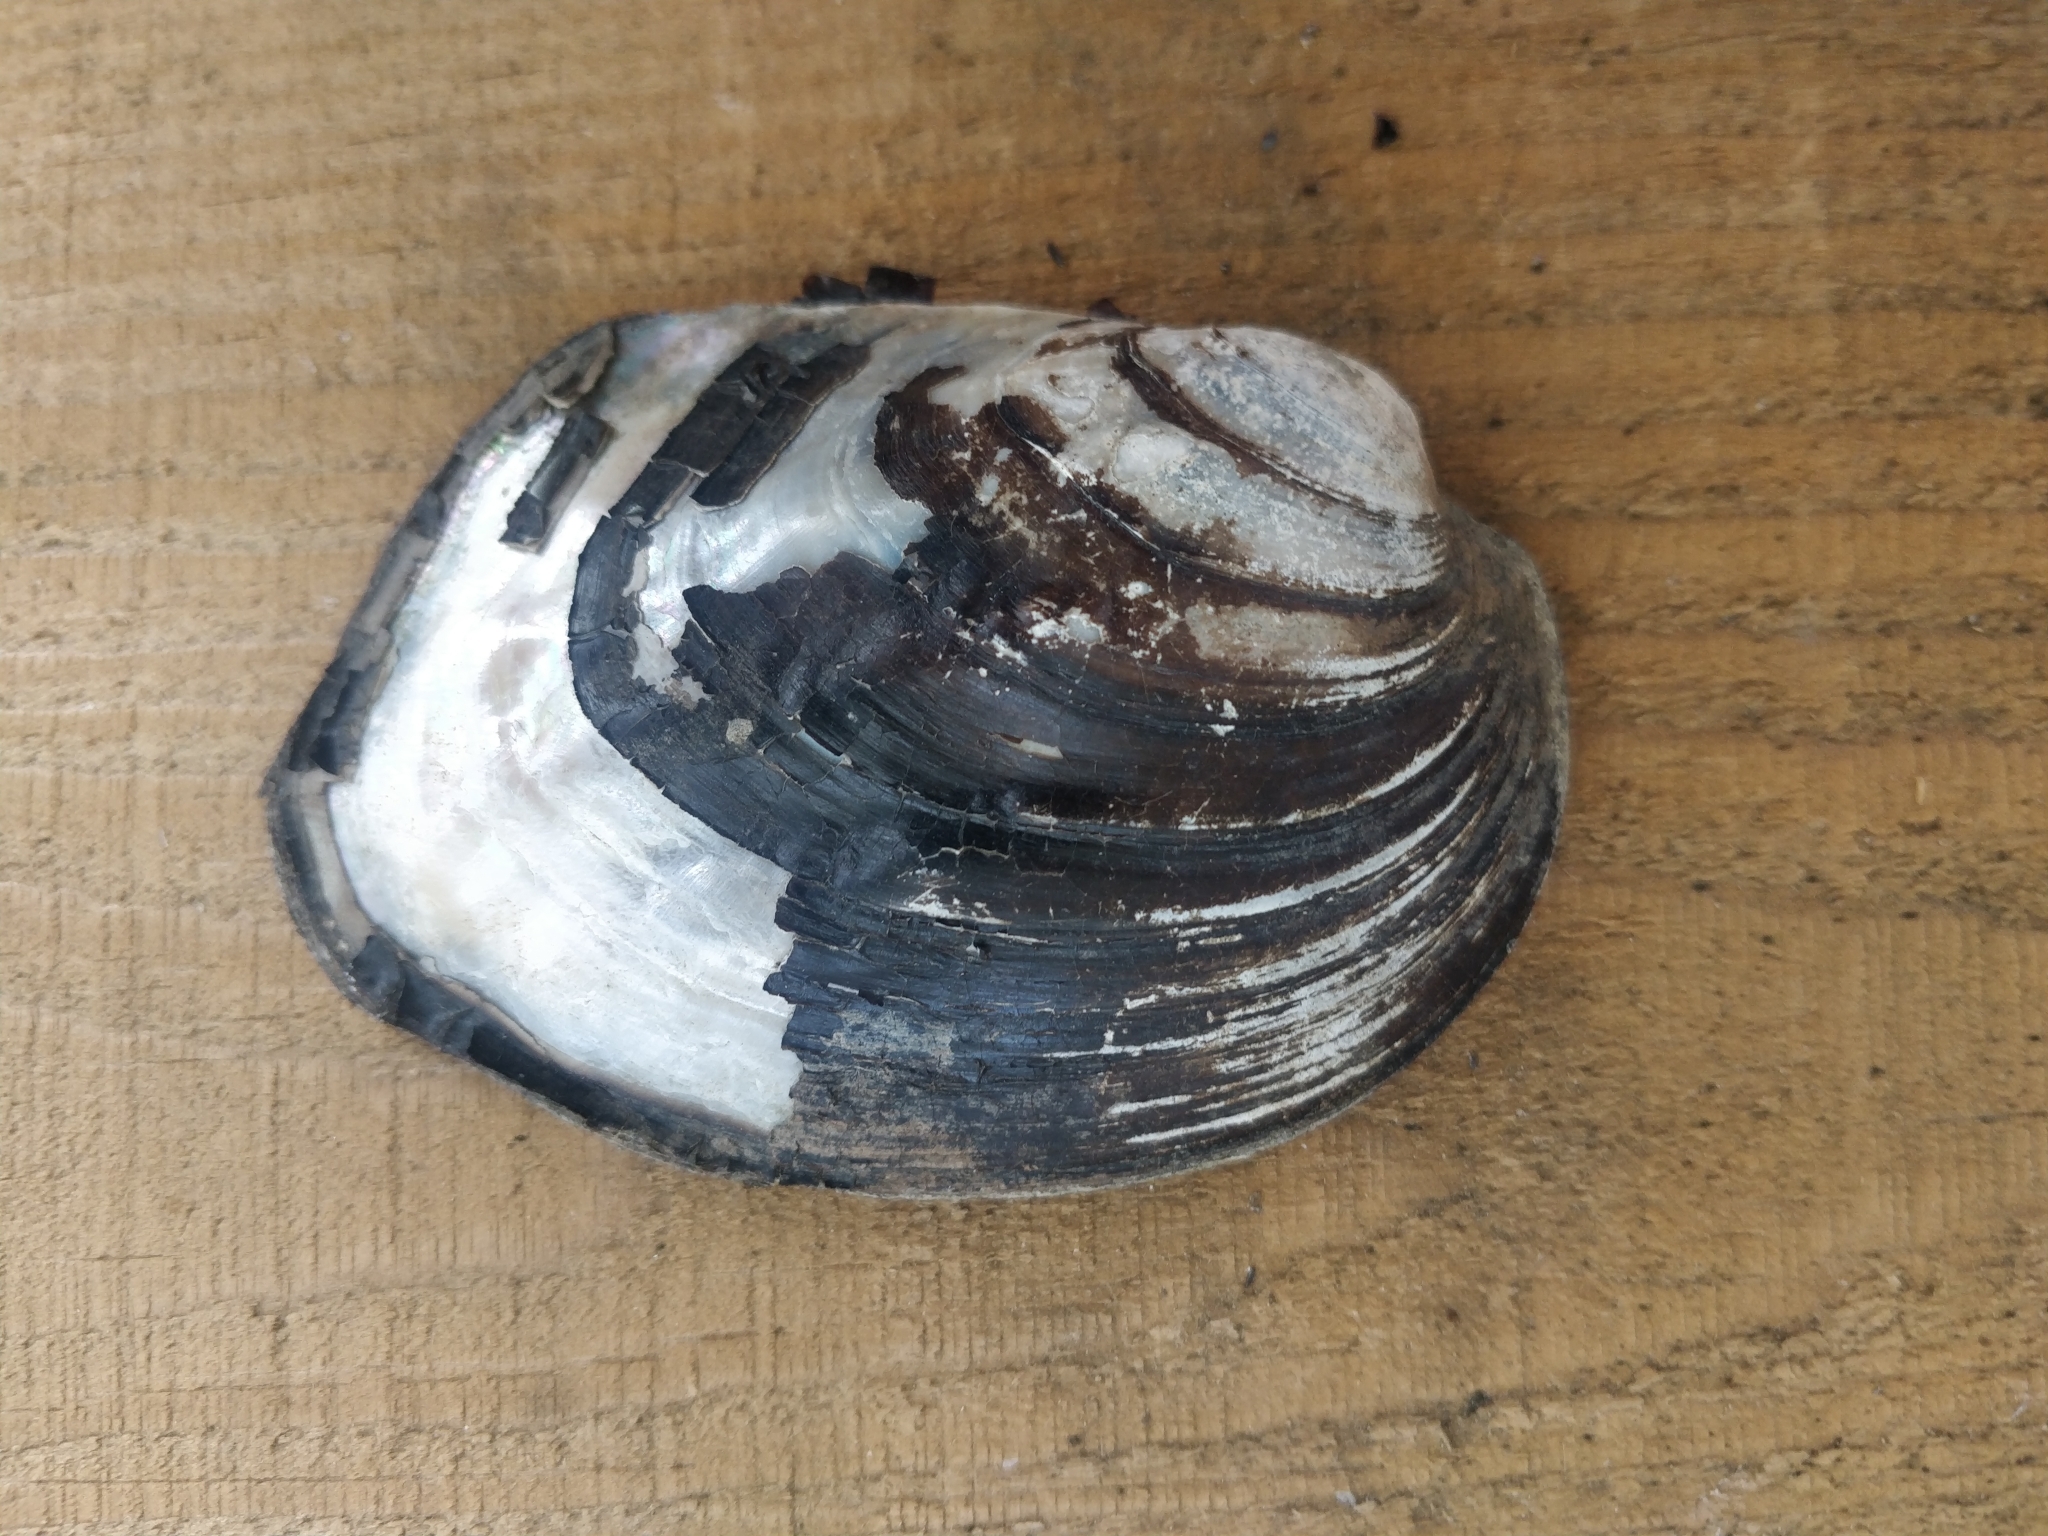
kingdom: Animalia
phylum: Mollusca
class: Bivalvia
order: Unionida
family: Unionidae
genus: Amblema
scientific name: Amblema plicata
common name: Threeridge
